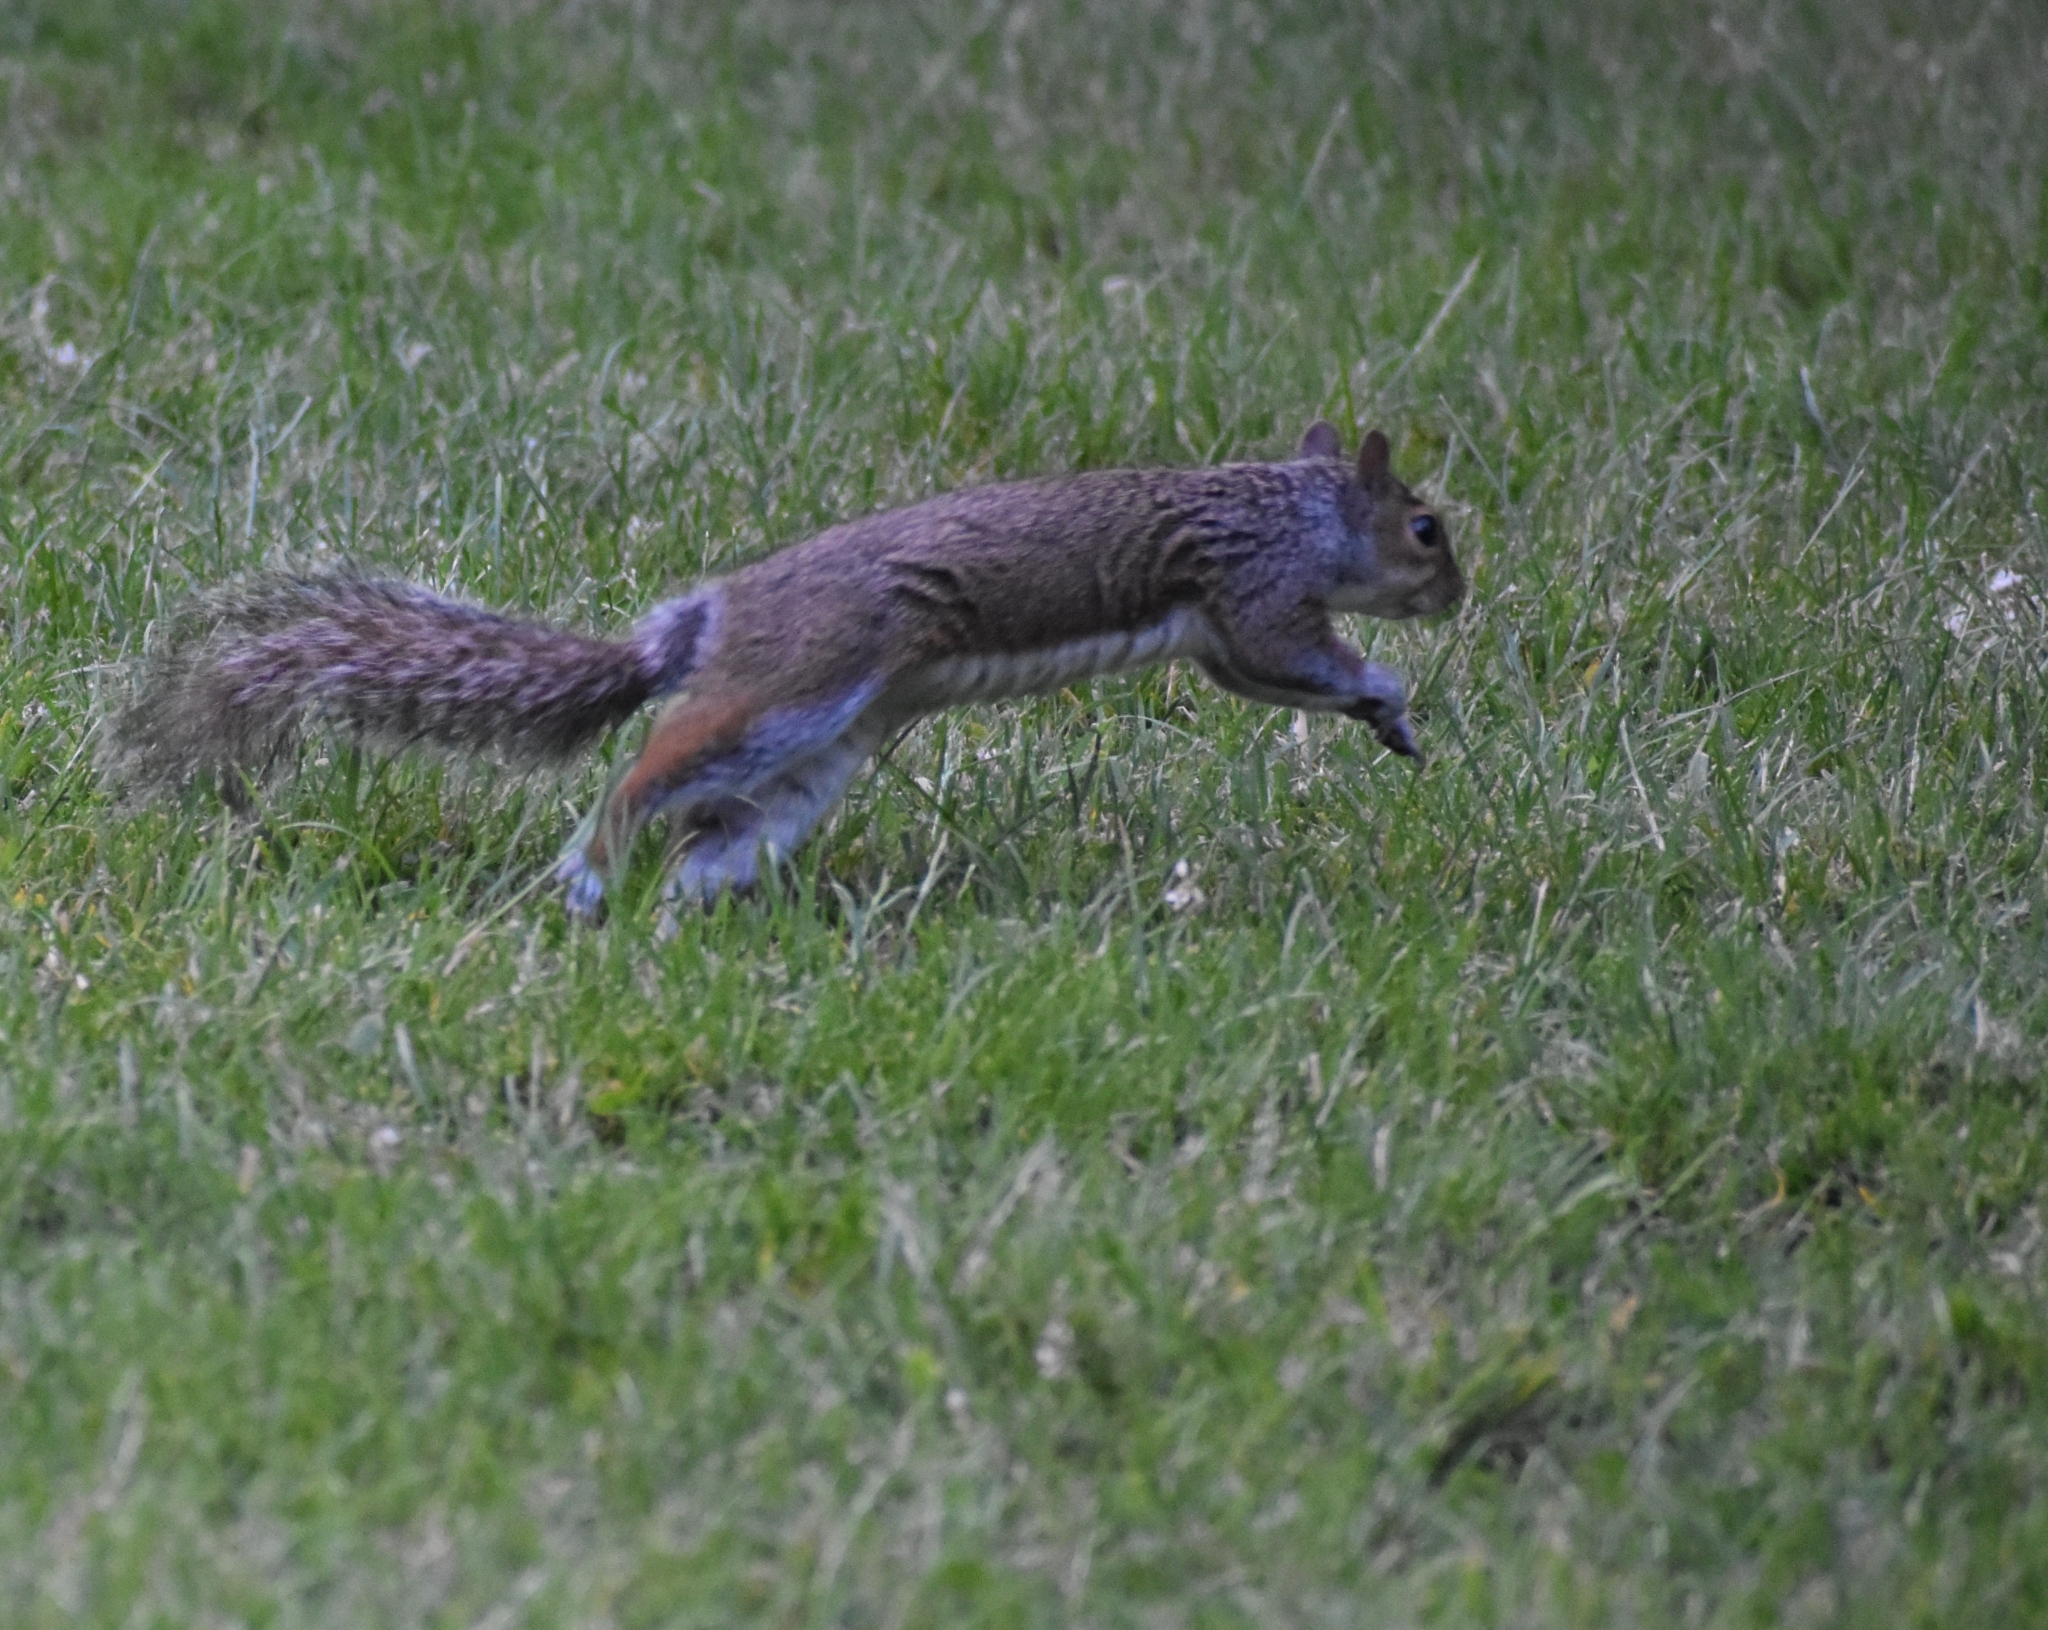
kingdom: Animalia
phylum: Chordata
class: Mammalia
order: Rodentia
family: Sciuridae
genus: Sciurus
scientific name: Sciurus carolinensis
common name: Eastern gray squirrel
